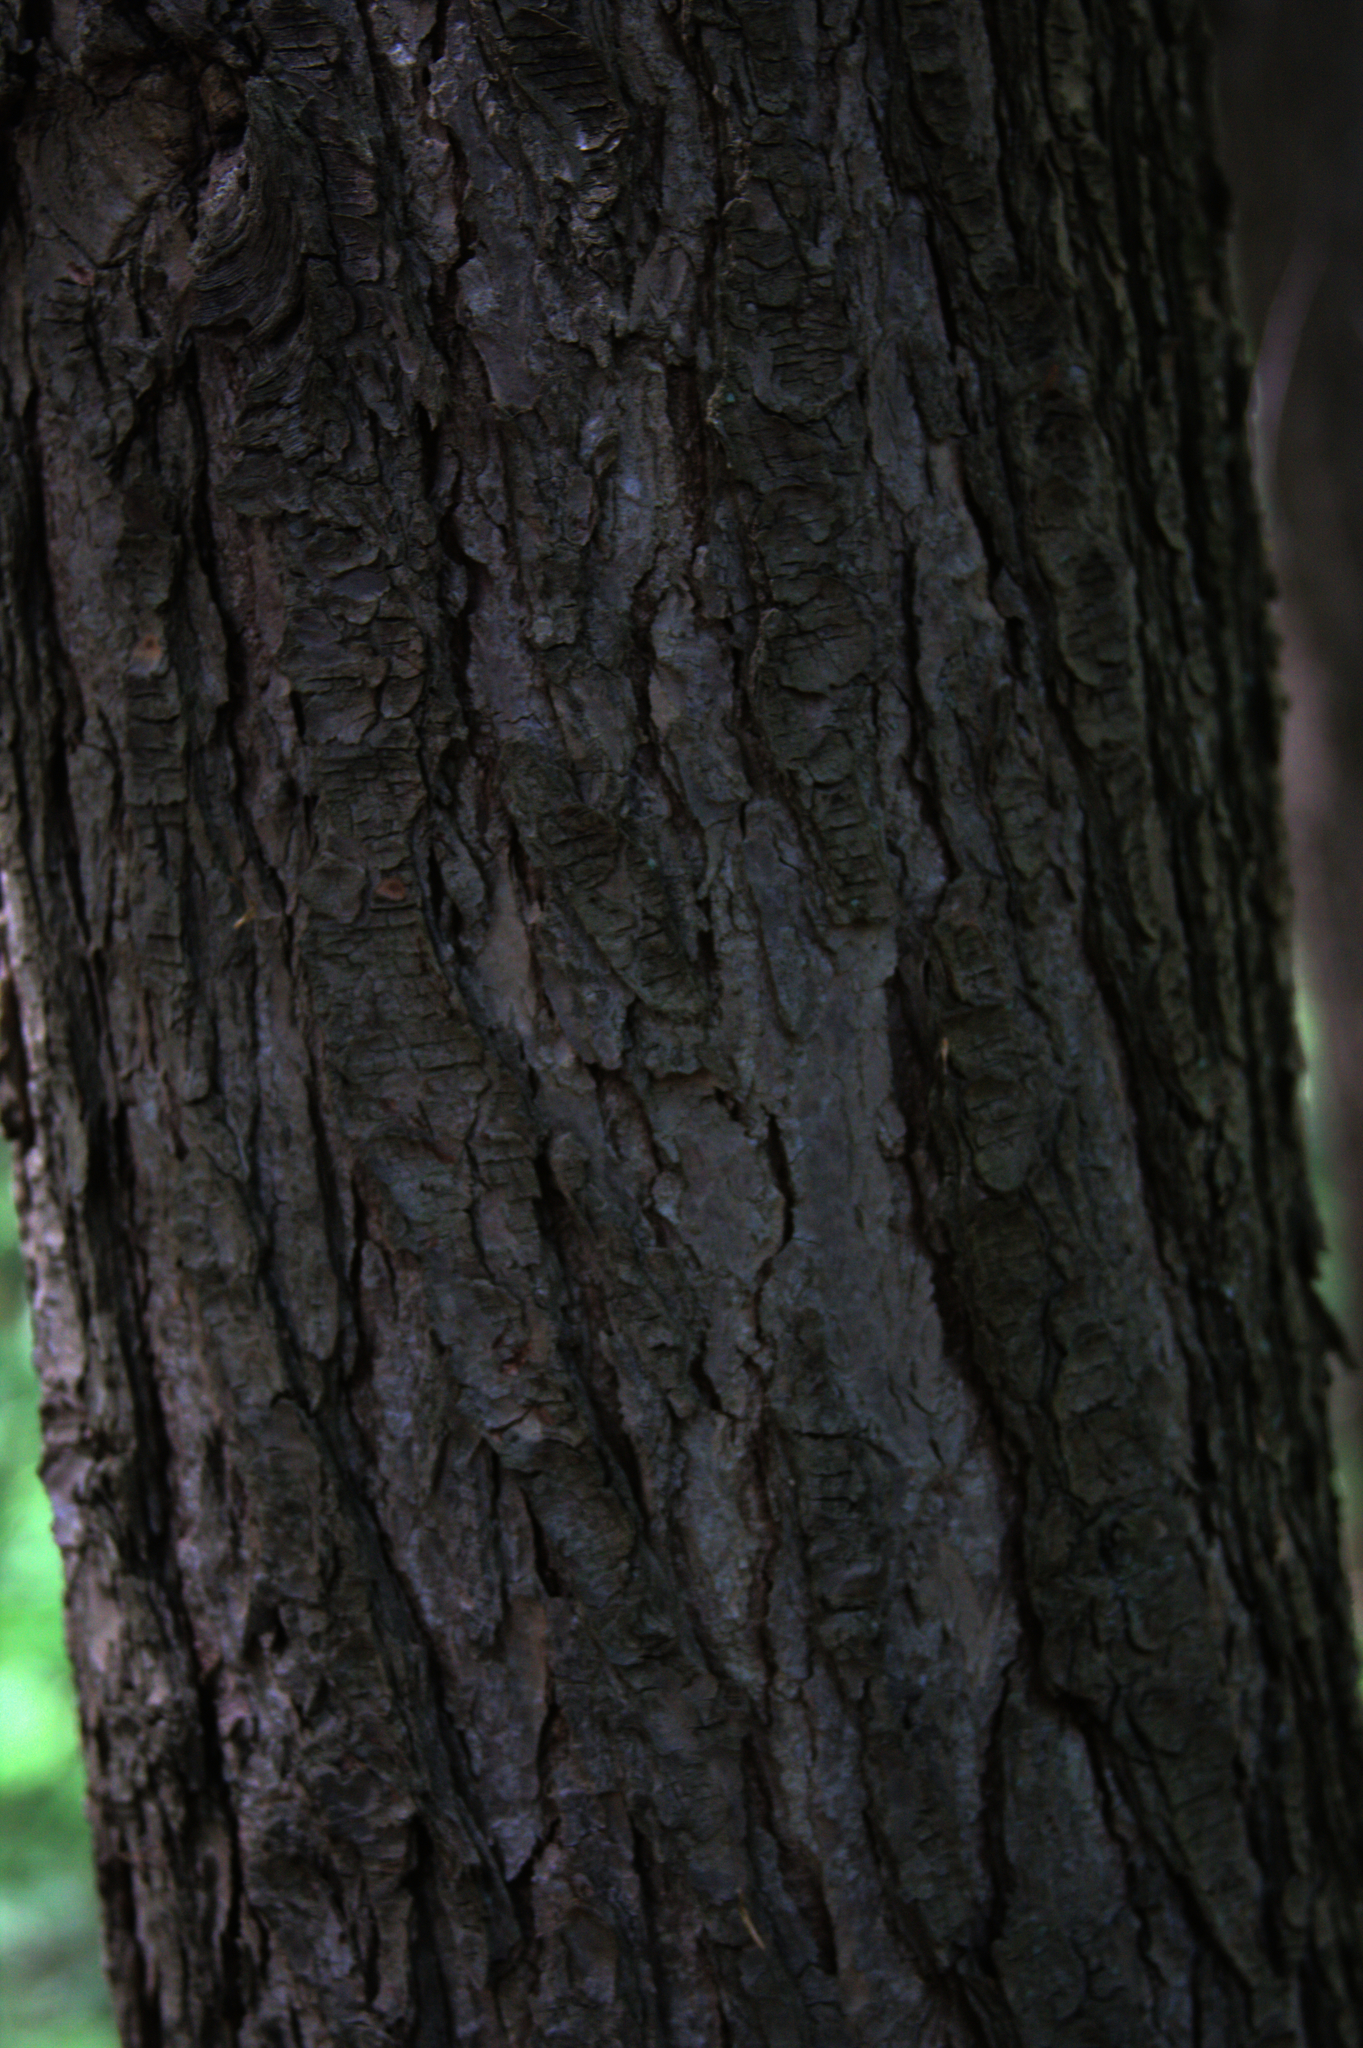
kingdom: Plantae
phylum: Tracheophyta
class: Pinopsida
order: Pinales
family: Pinaceae
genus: Tsuga
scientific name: Tsuga canadensis
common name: Eastern hemlock
